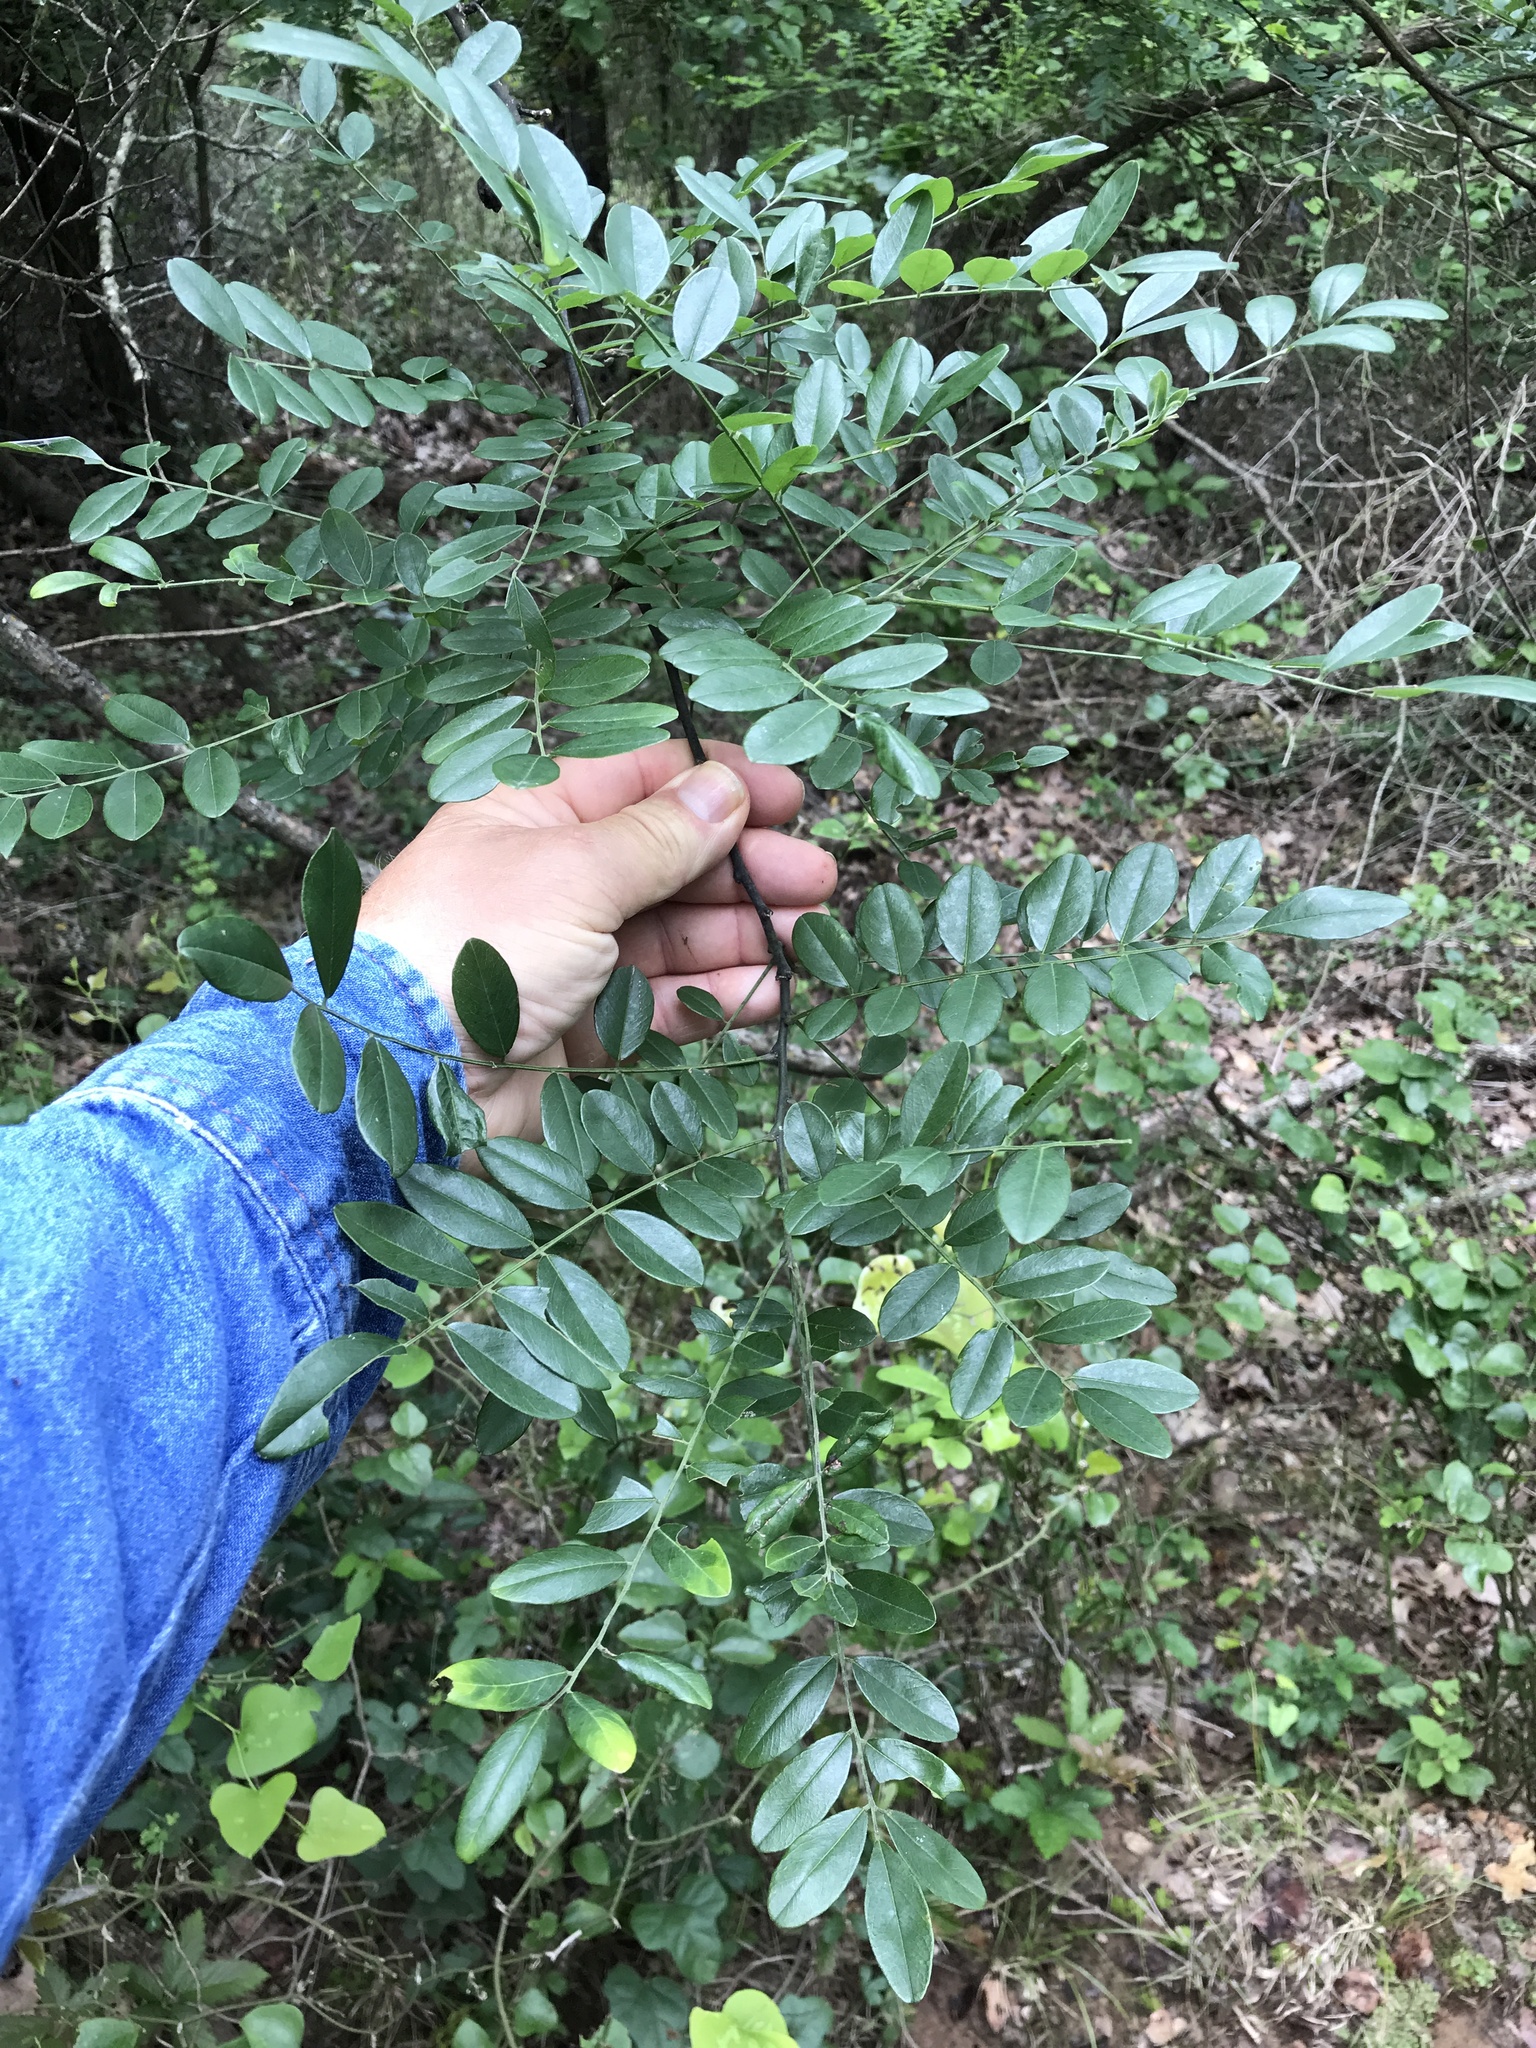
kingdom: Plantae
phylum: Tracheophyta
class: Magnoliopsida
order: Fabales
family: Fabaceae
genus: Styphnolobium
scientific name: Styphnolobium affine
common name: Texas sophora
